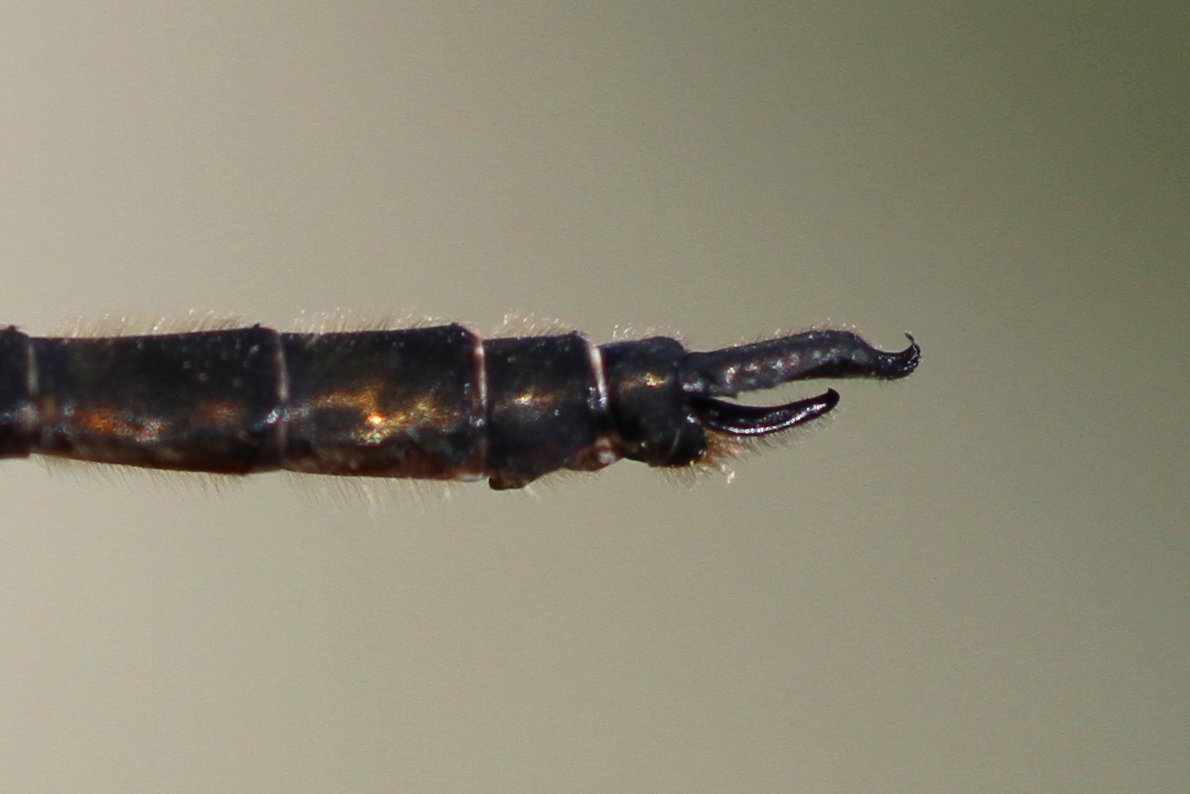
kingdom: Animalia
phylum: Arthropoda
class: Insecta
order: Odonata
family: Corduliidae
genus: Somatochlora
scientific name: Somatochlora brevicincta
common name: Quebec emerald
